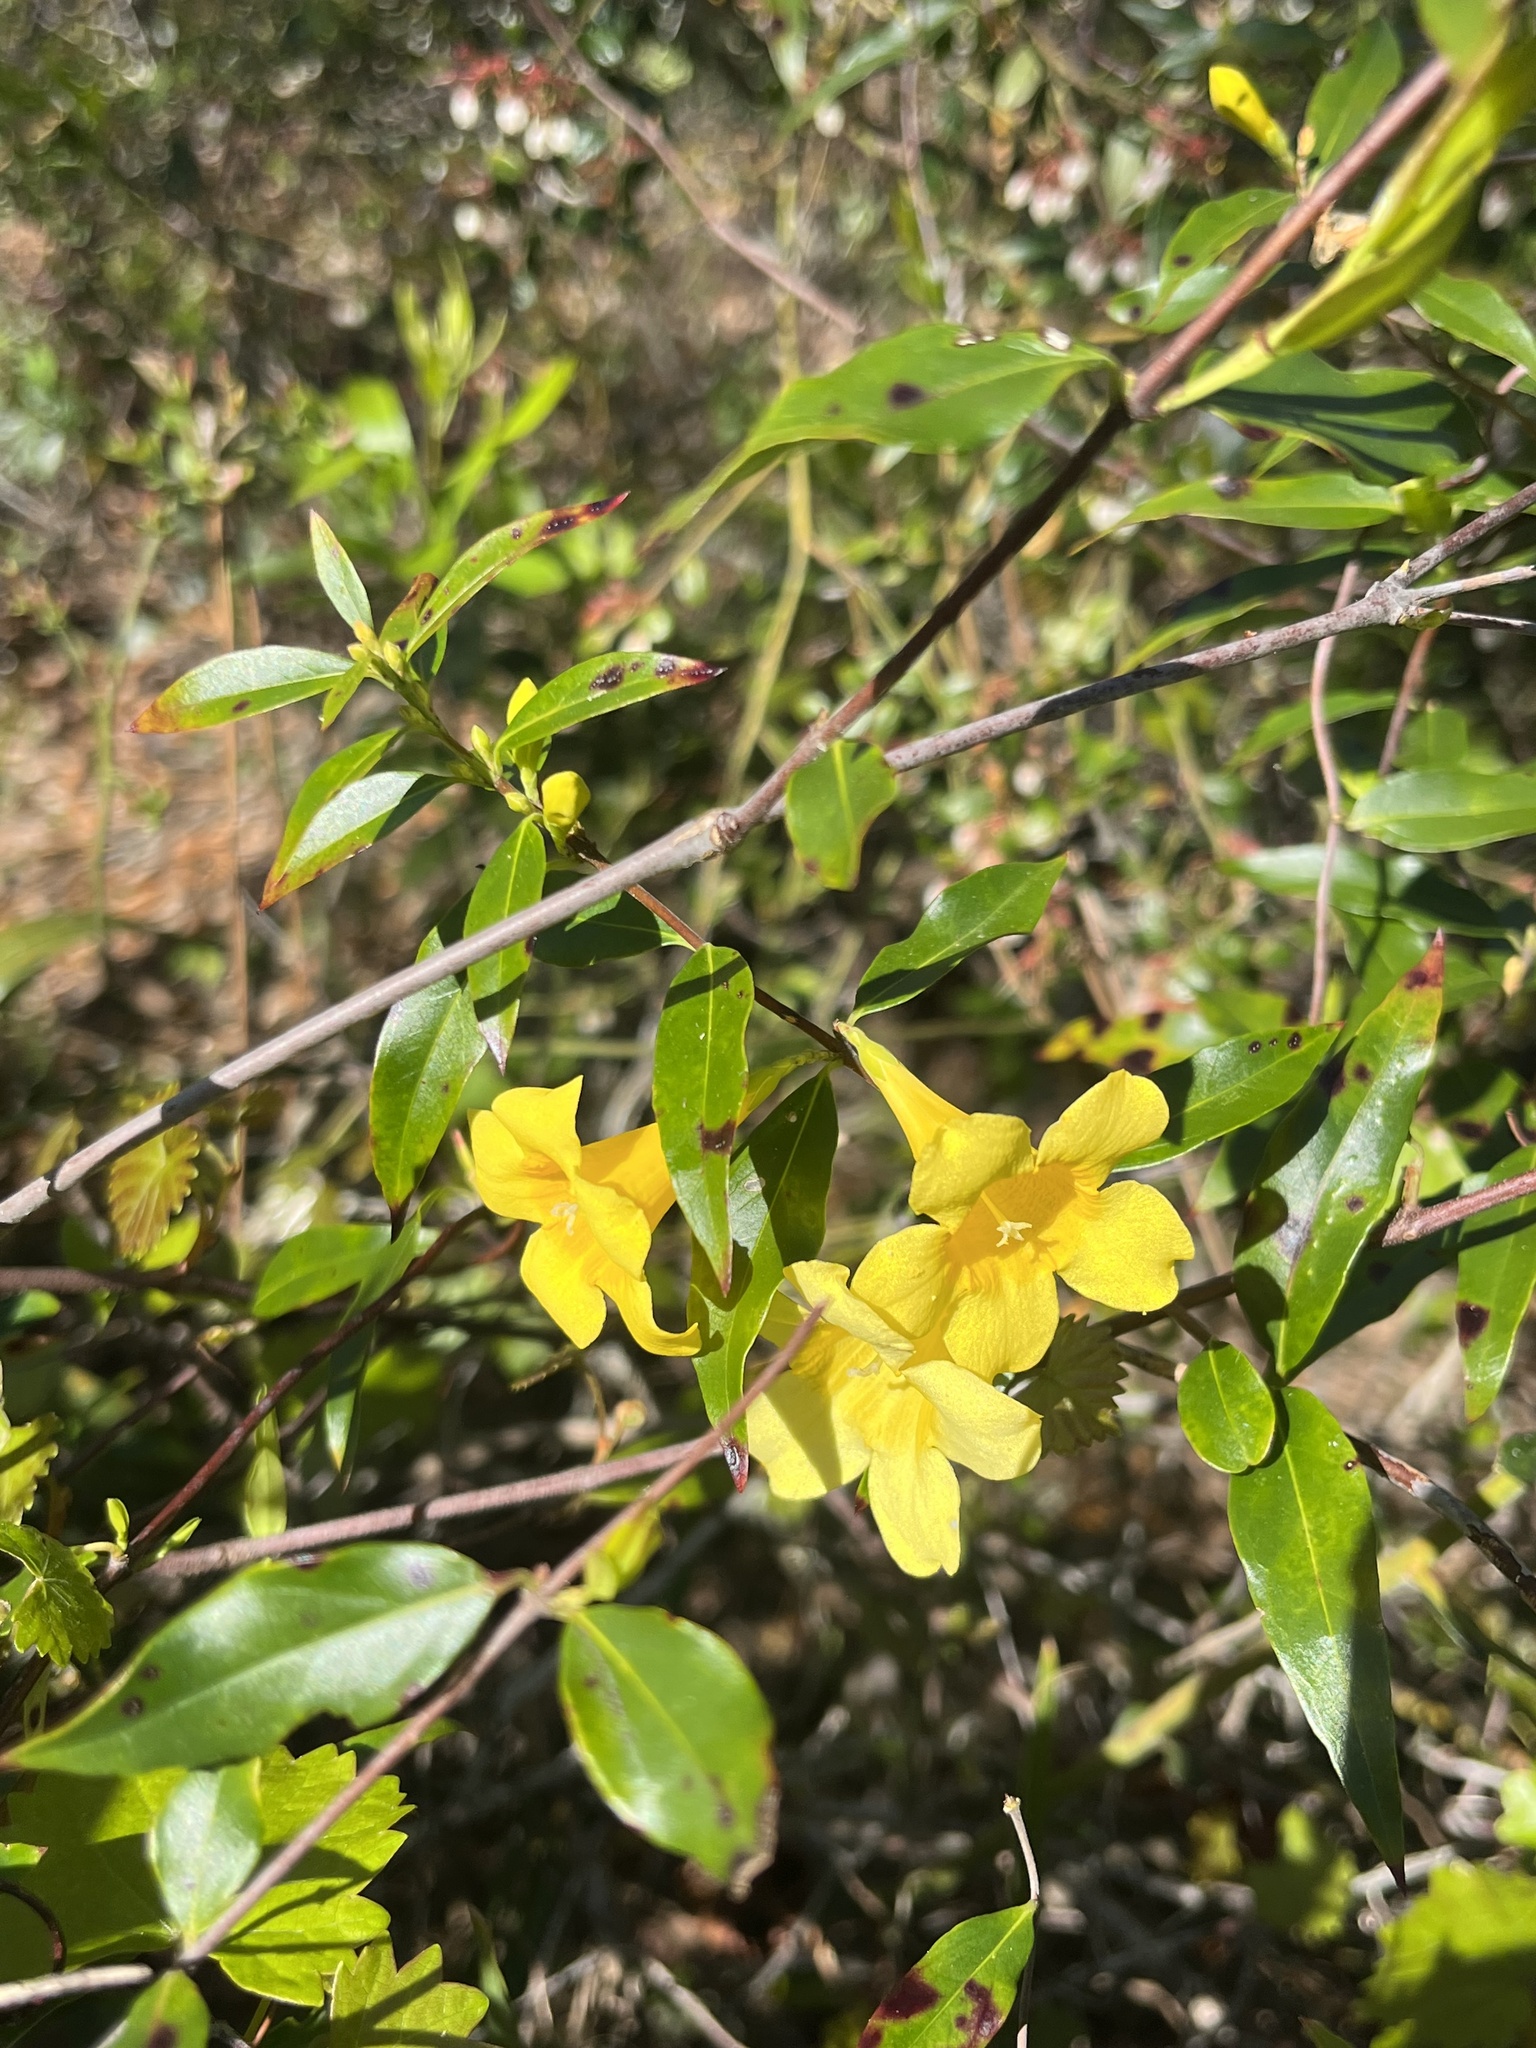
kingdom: Plantae
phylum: Tracheophyta
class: Magnoliopsida
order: Gentianales
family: Gelsemiaceae
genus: Gelsemium
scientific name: Gelsemium sempervirens
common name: Carolina-jasmine
